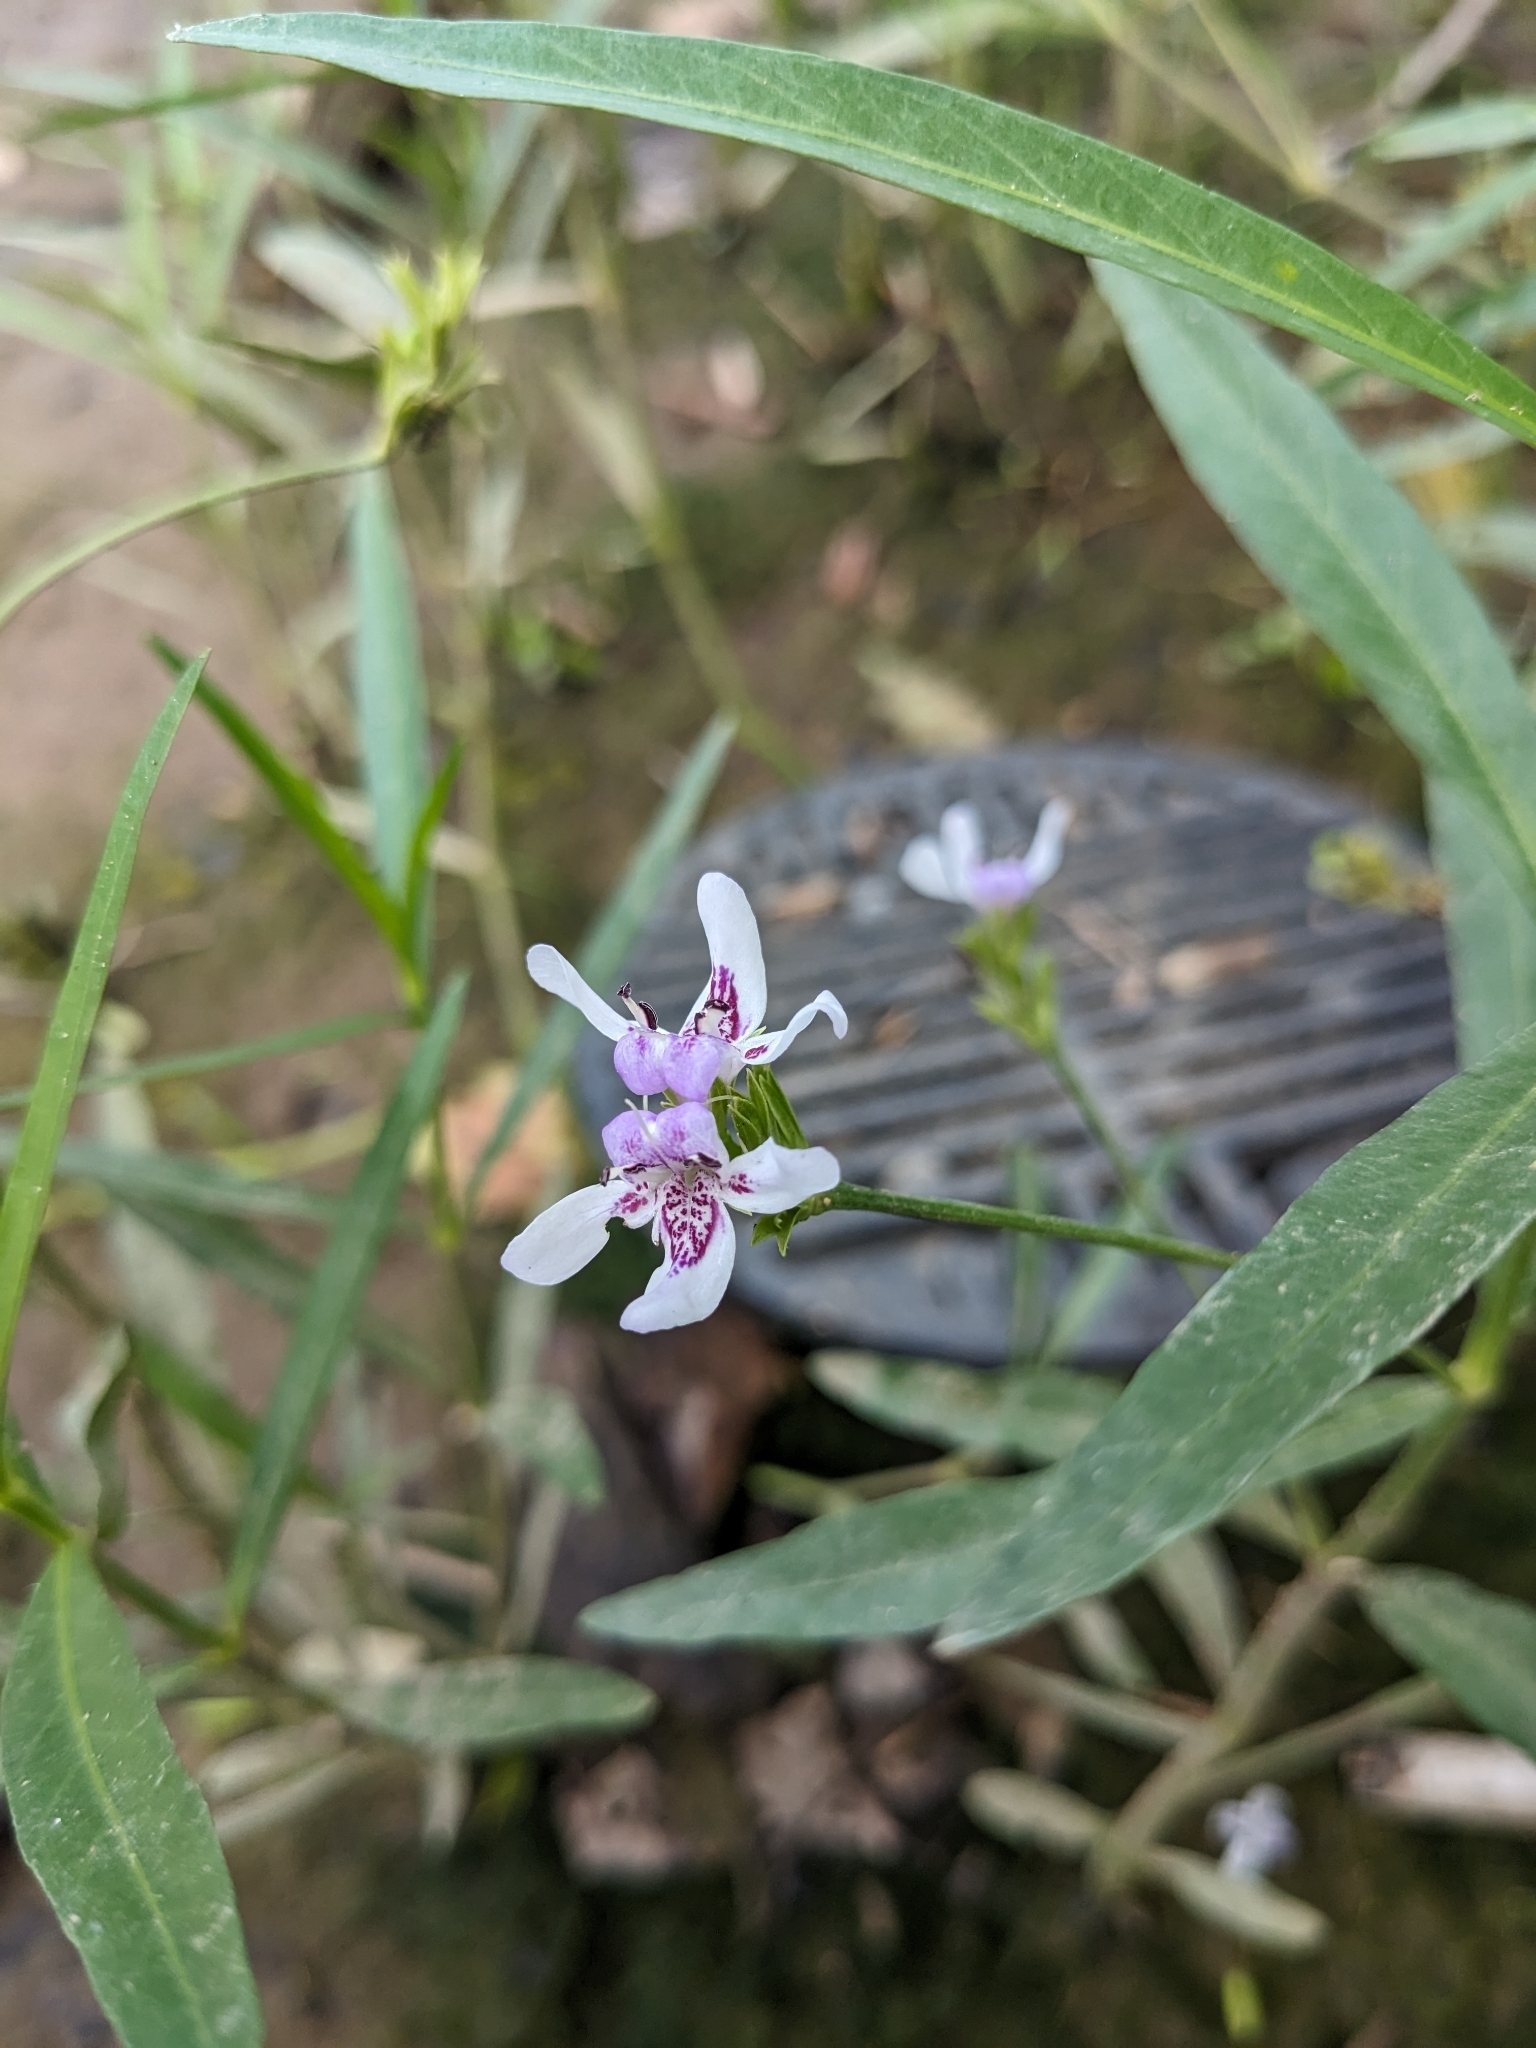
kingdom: Plantae
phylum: Tracheophyta
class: Magnoliopsida
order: Lamiales
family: Acanthaceae
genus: Dianthera
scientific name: Dianthera americana
